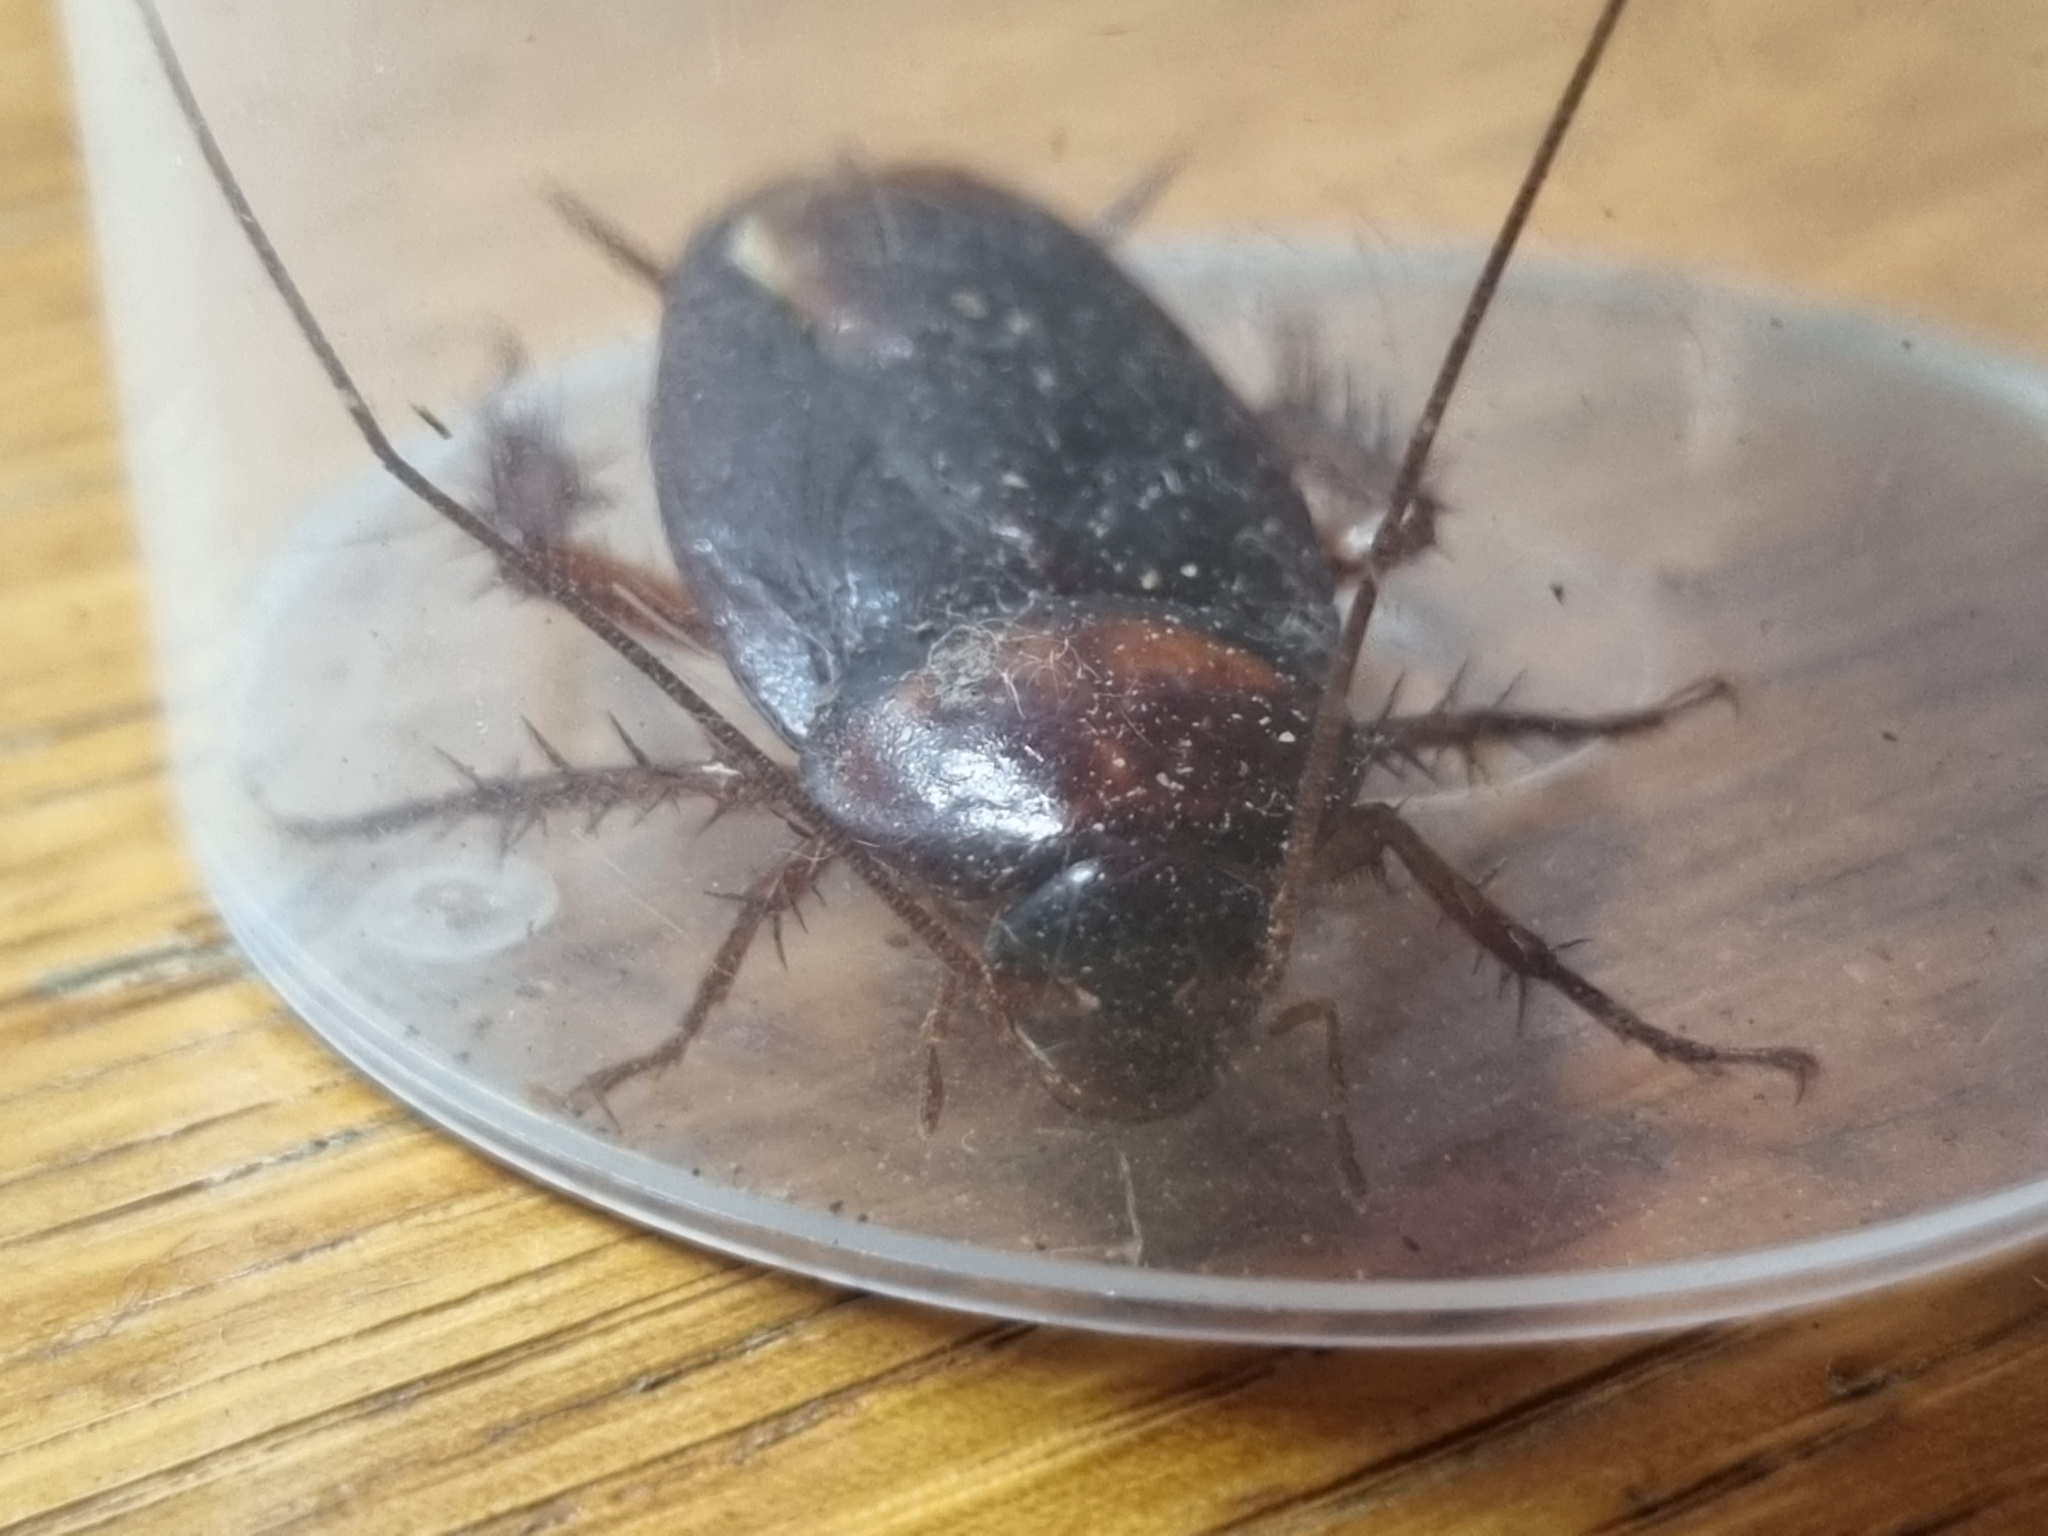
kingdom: Animalia
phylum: Arthropoda
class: Insecta
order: Blattodea
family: Blattidae
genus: Periplaneta
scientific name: Periplaneta americana
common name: American cockroach
